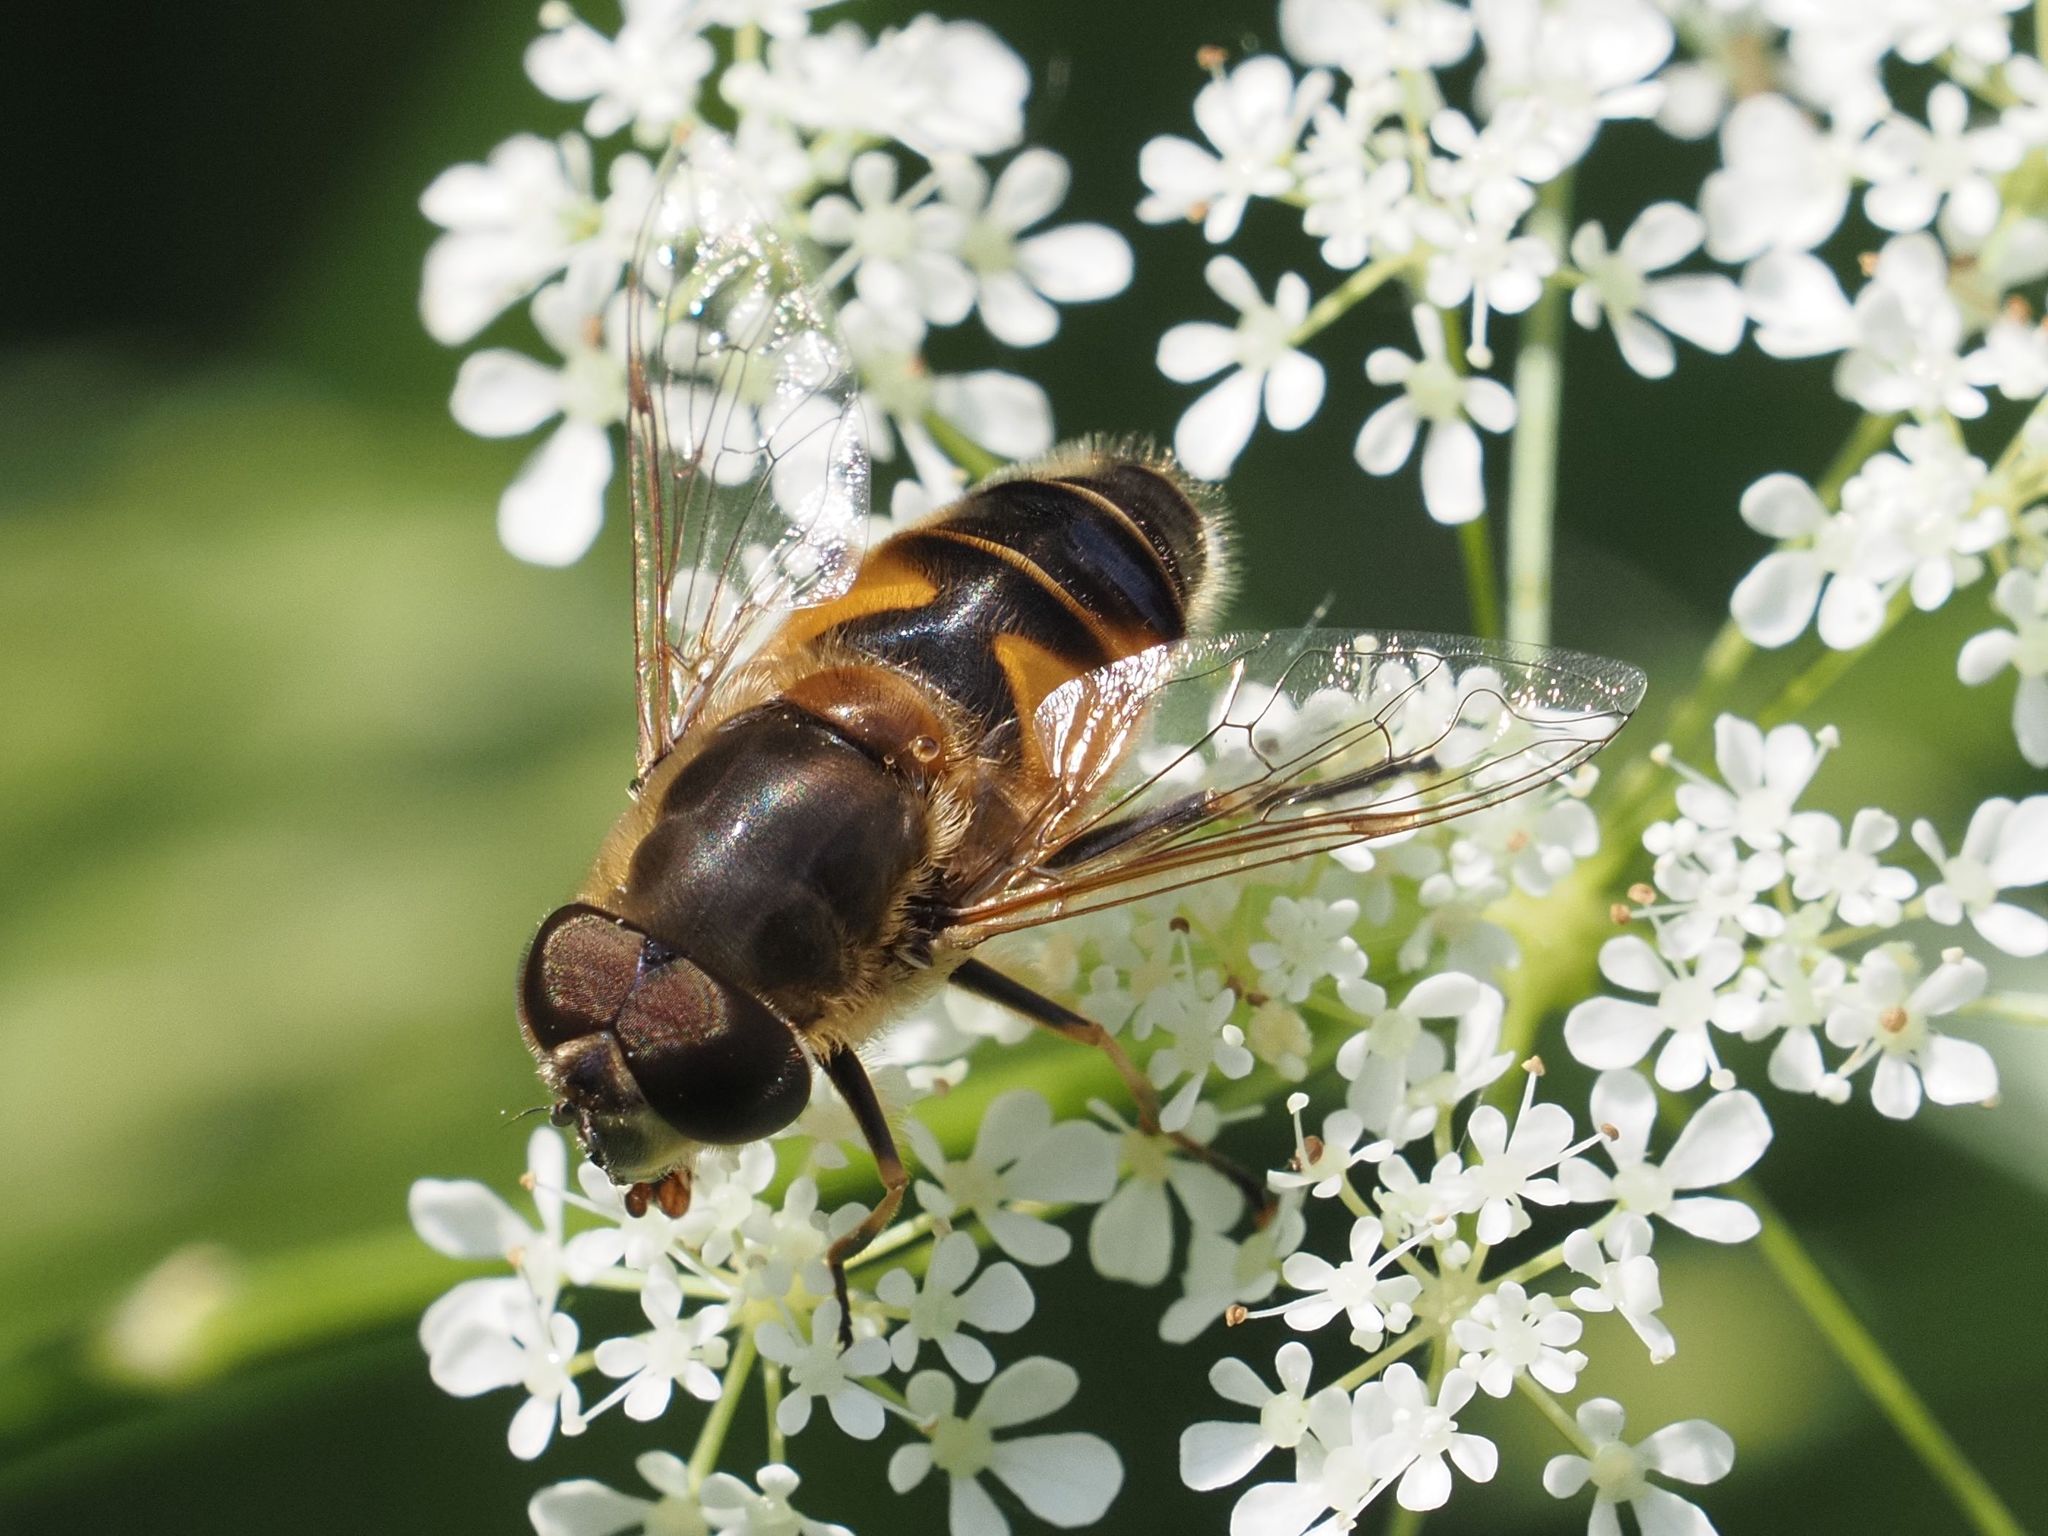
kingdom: Animalia
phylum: Arthropoda
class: Insecta
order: Diptera
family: Syrphidae
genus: Eristalis
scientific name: Eristalis pertinax
